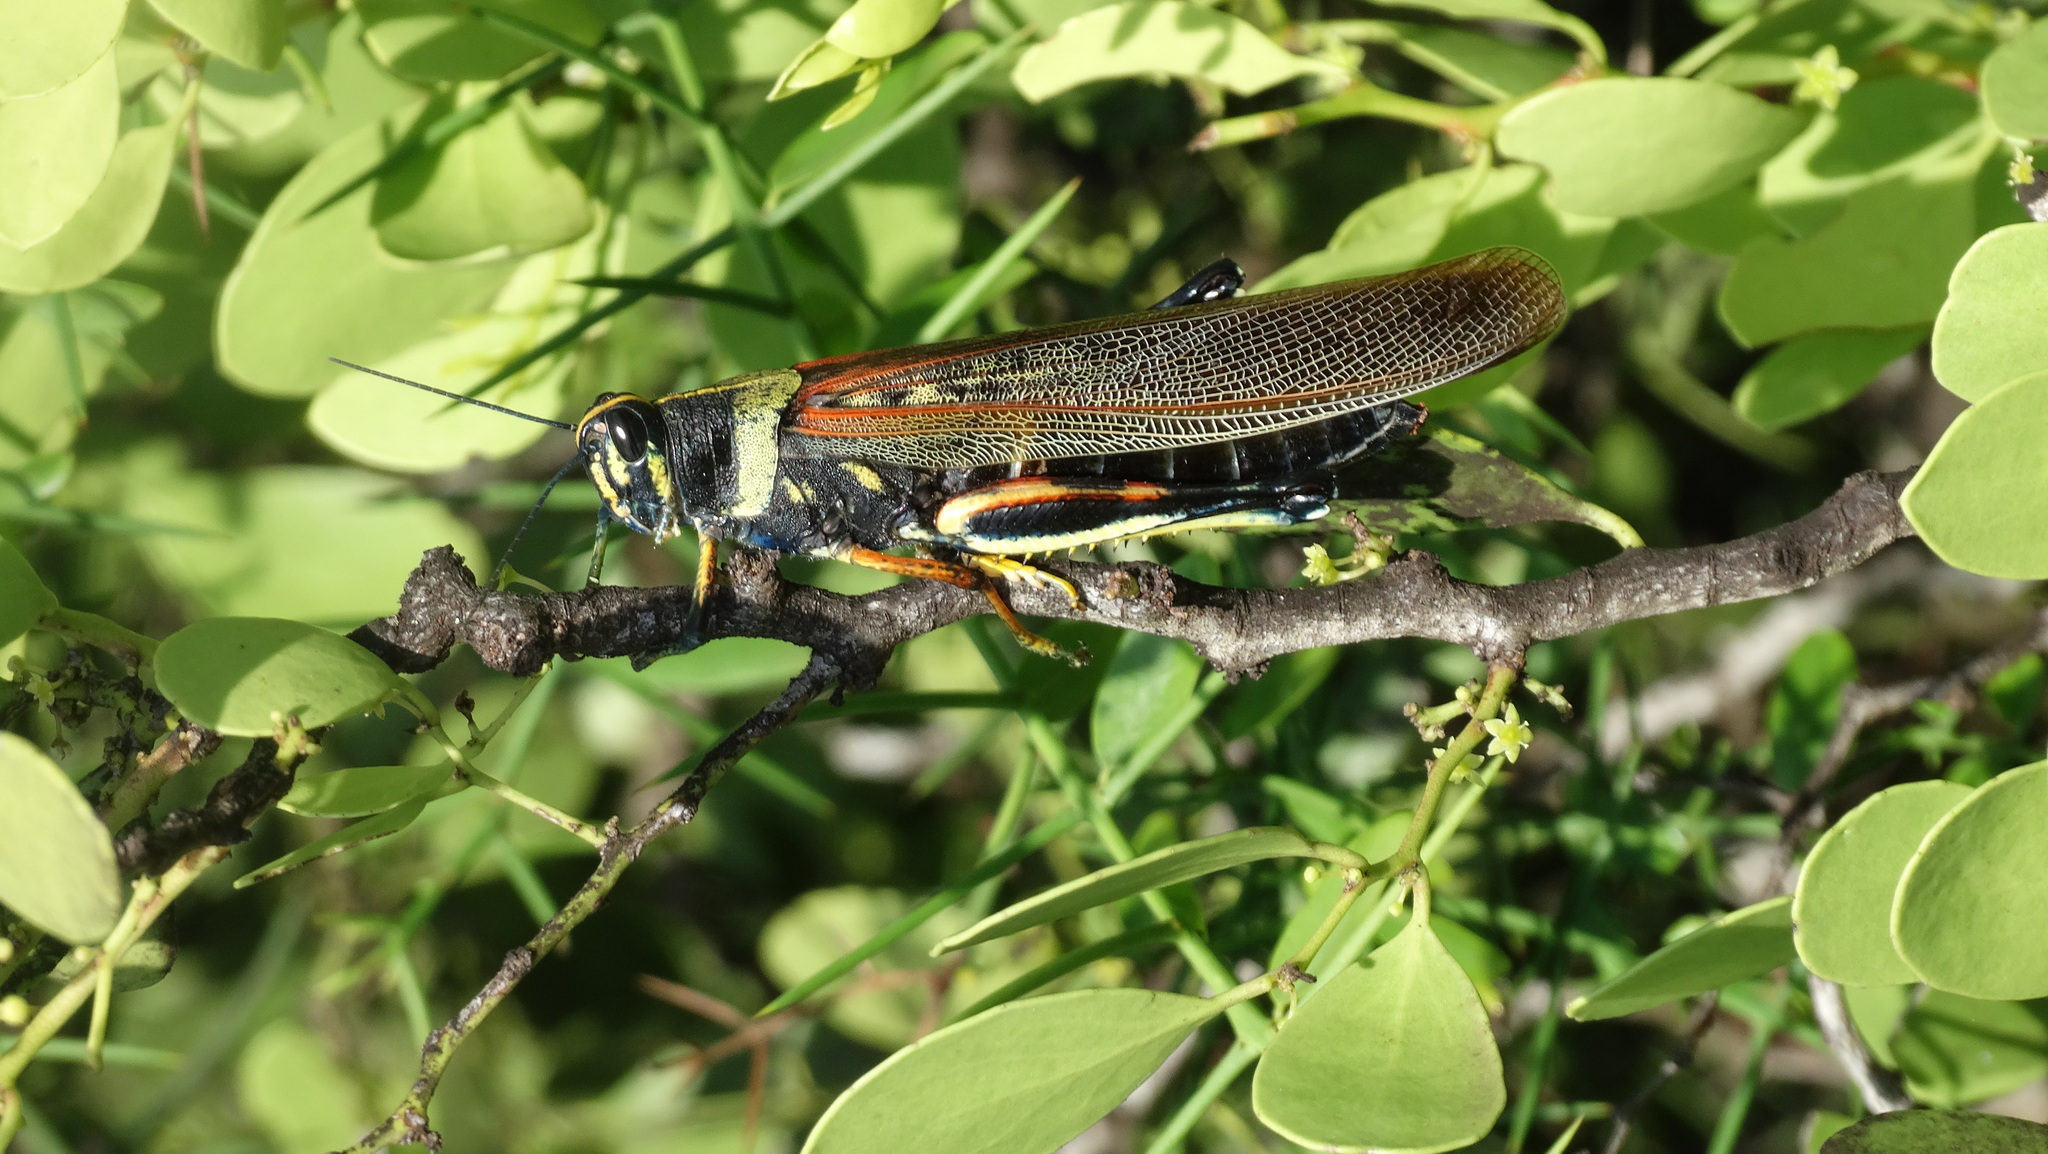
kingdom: Animalia
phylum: Arthropoda
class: Insecta
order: Orthoptera
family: Acrididae
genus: Schistocerca
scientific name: Schistocerca melanocera
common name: Large painted locust
